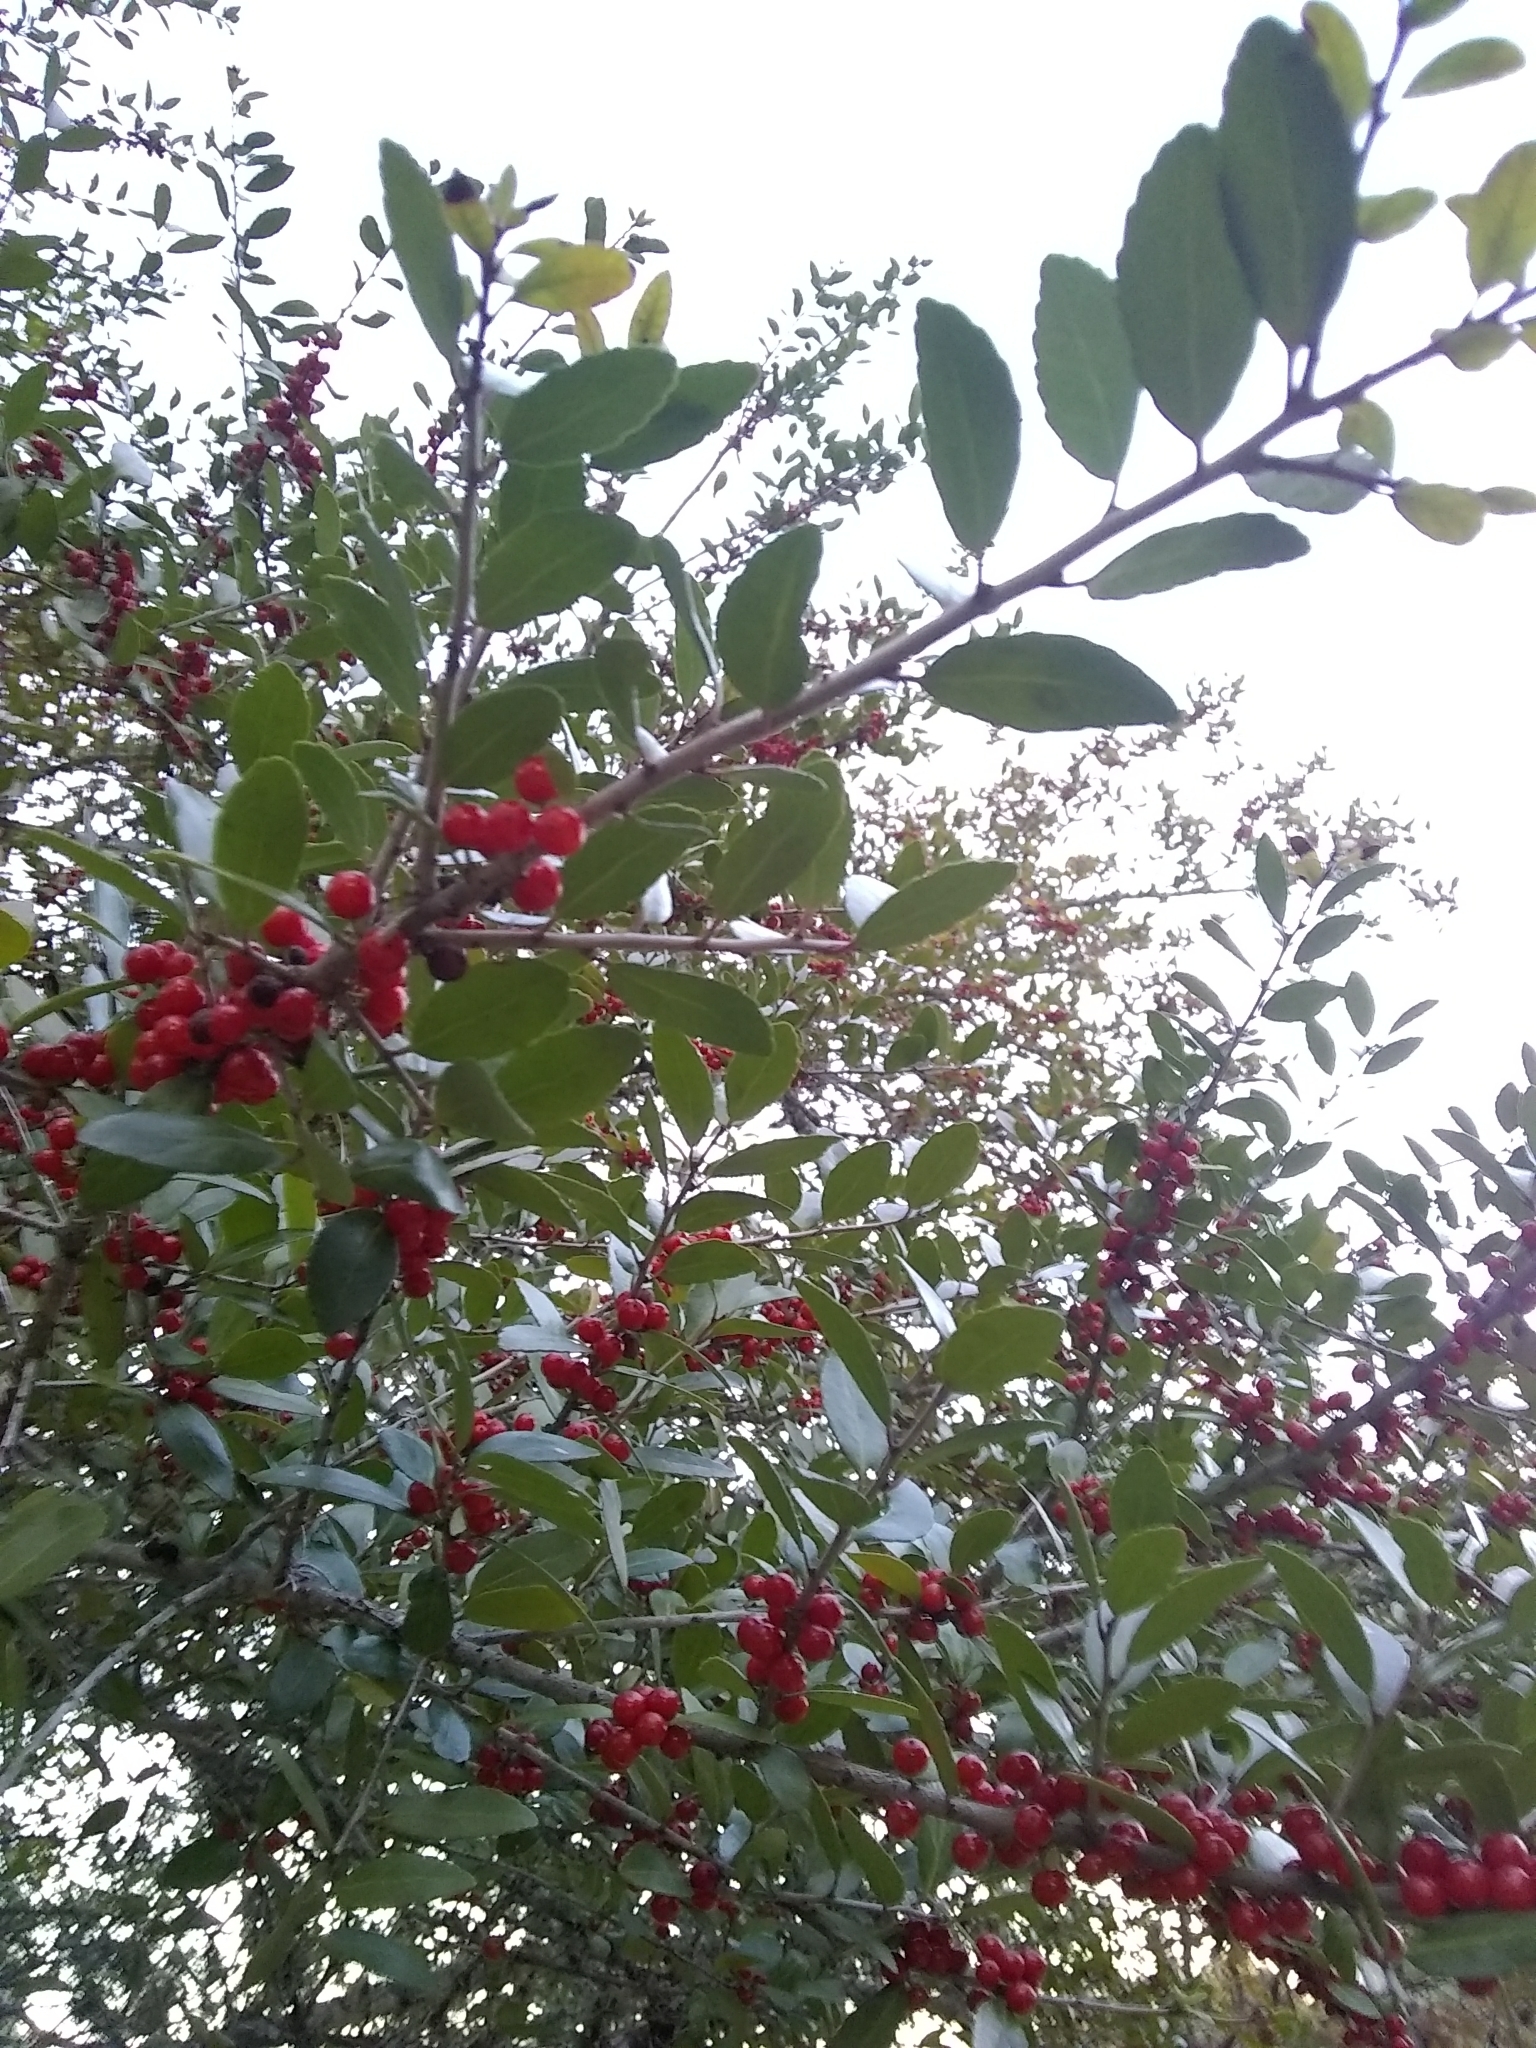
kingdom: Plantae
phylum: Tracheophyta
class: Magnoliopsida
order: Aquifoliales
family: Aquifoliaceae
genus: Ilex
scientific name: Ilex vomitoria
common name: Yaupon holly
